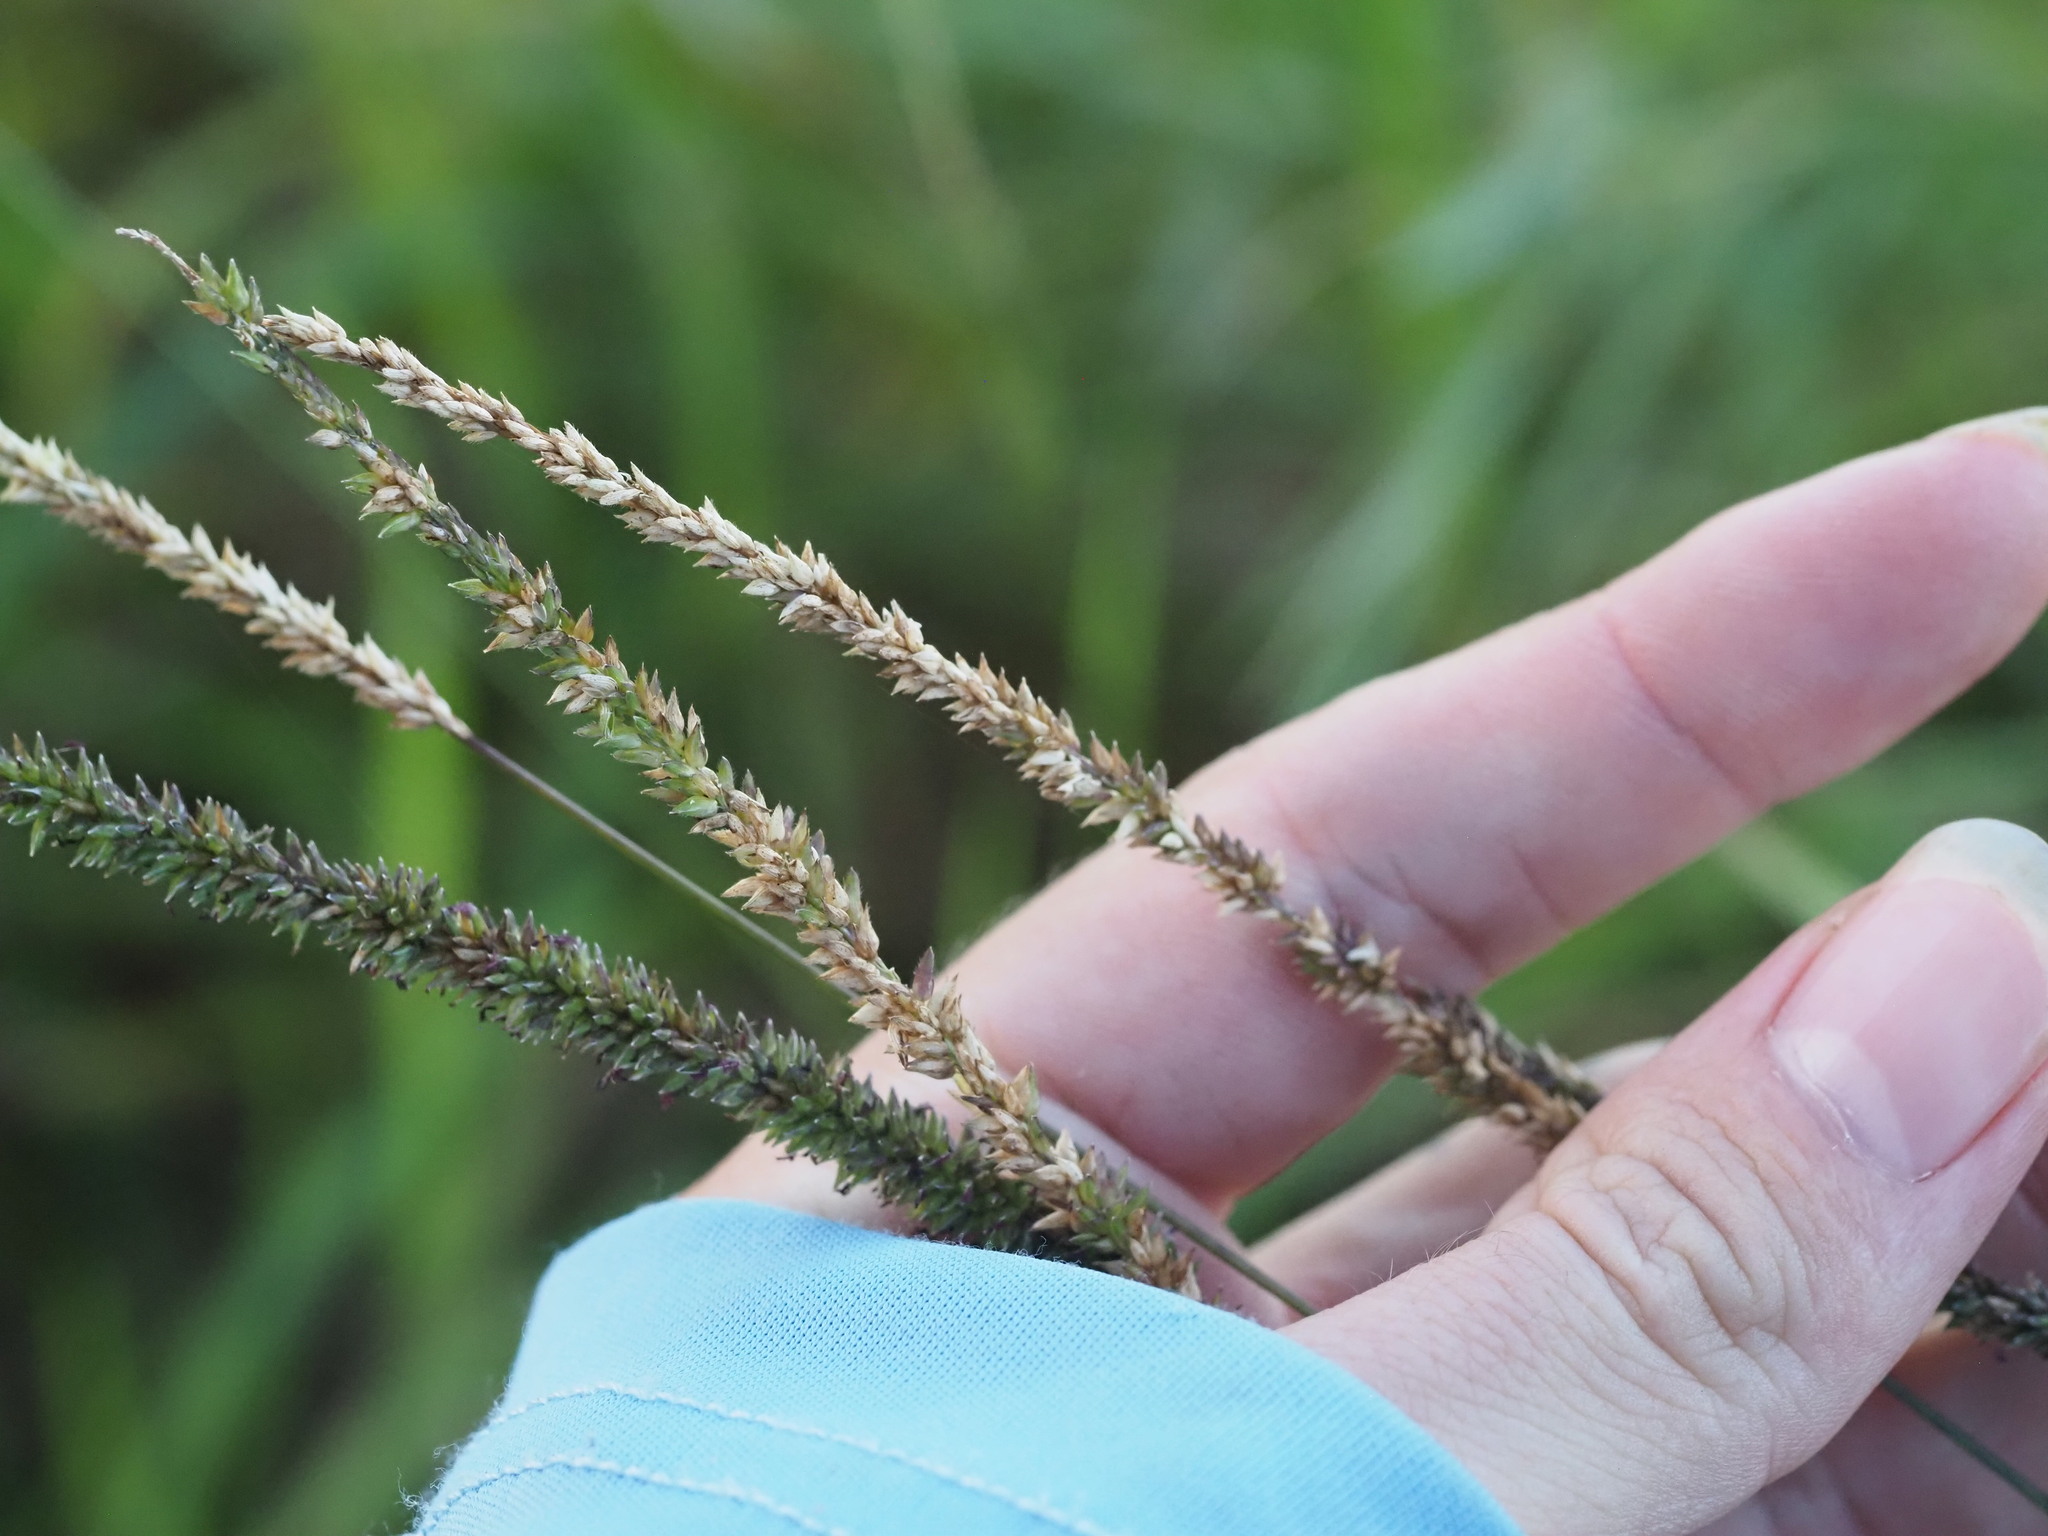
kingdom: Plantae
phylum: Tracheophyta
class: Liliopsida
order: Poales
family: Poaceae
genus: Sacciolepis
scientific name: Sacciolepis indica
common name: Glenwoodgrass
